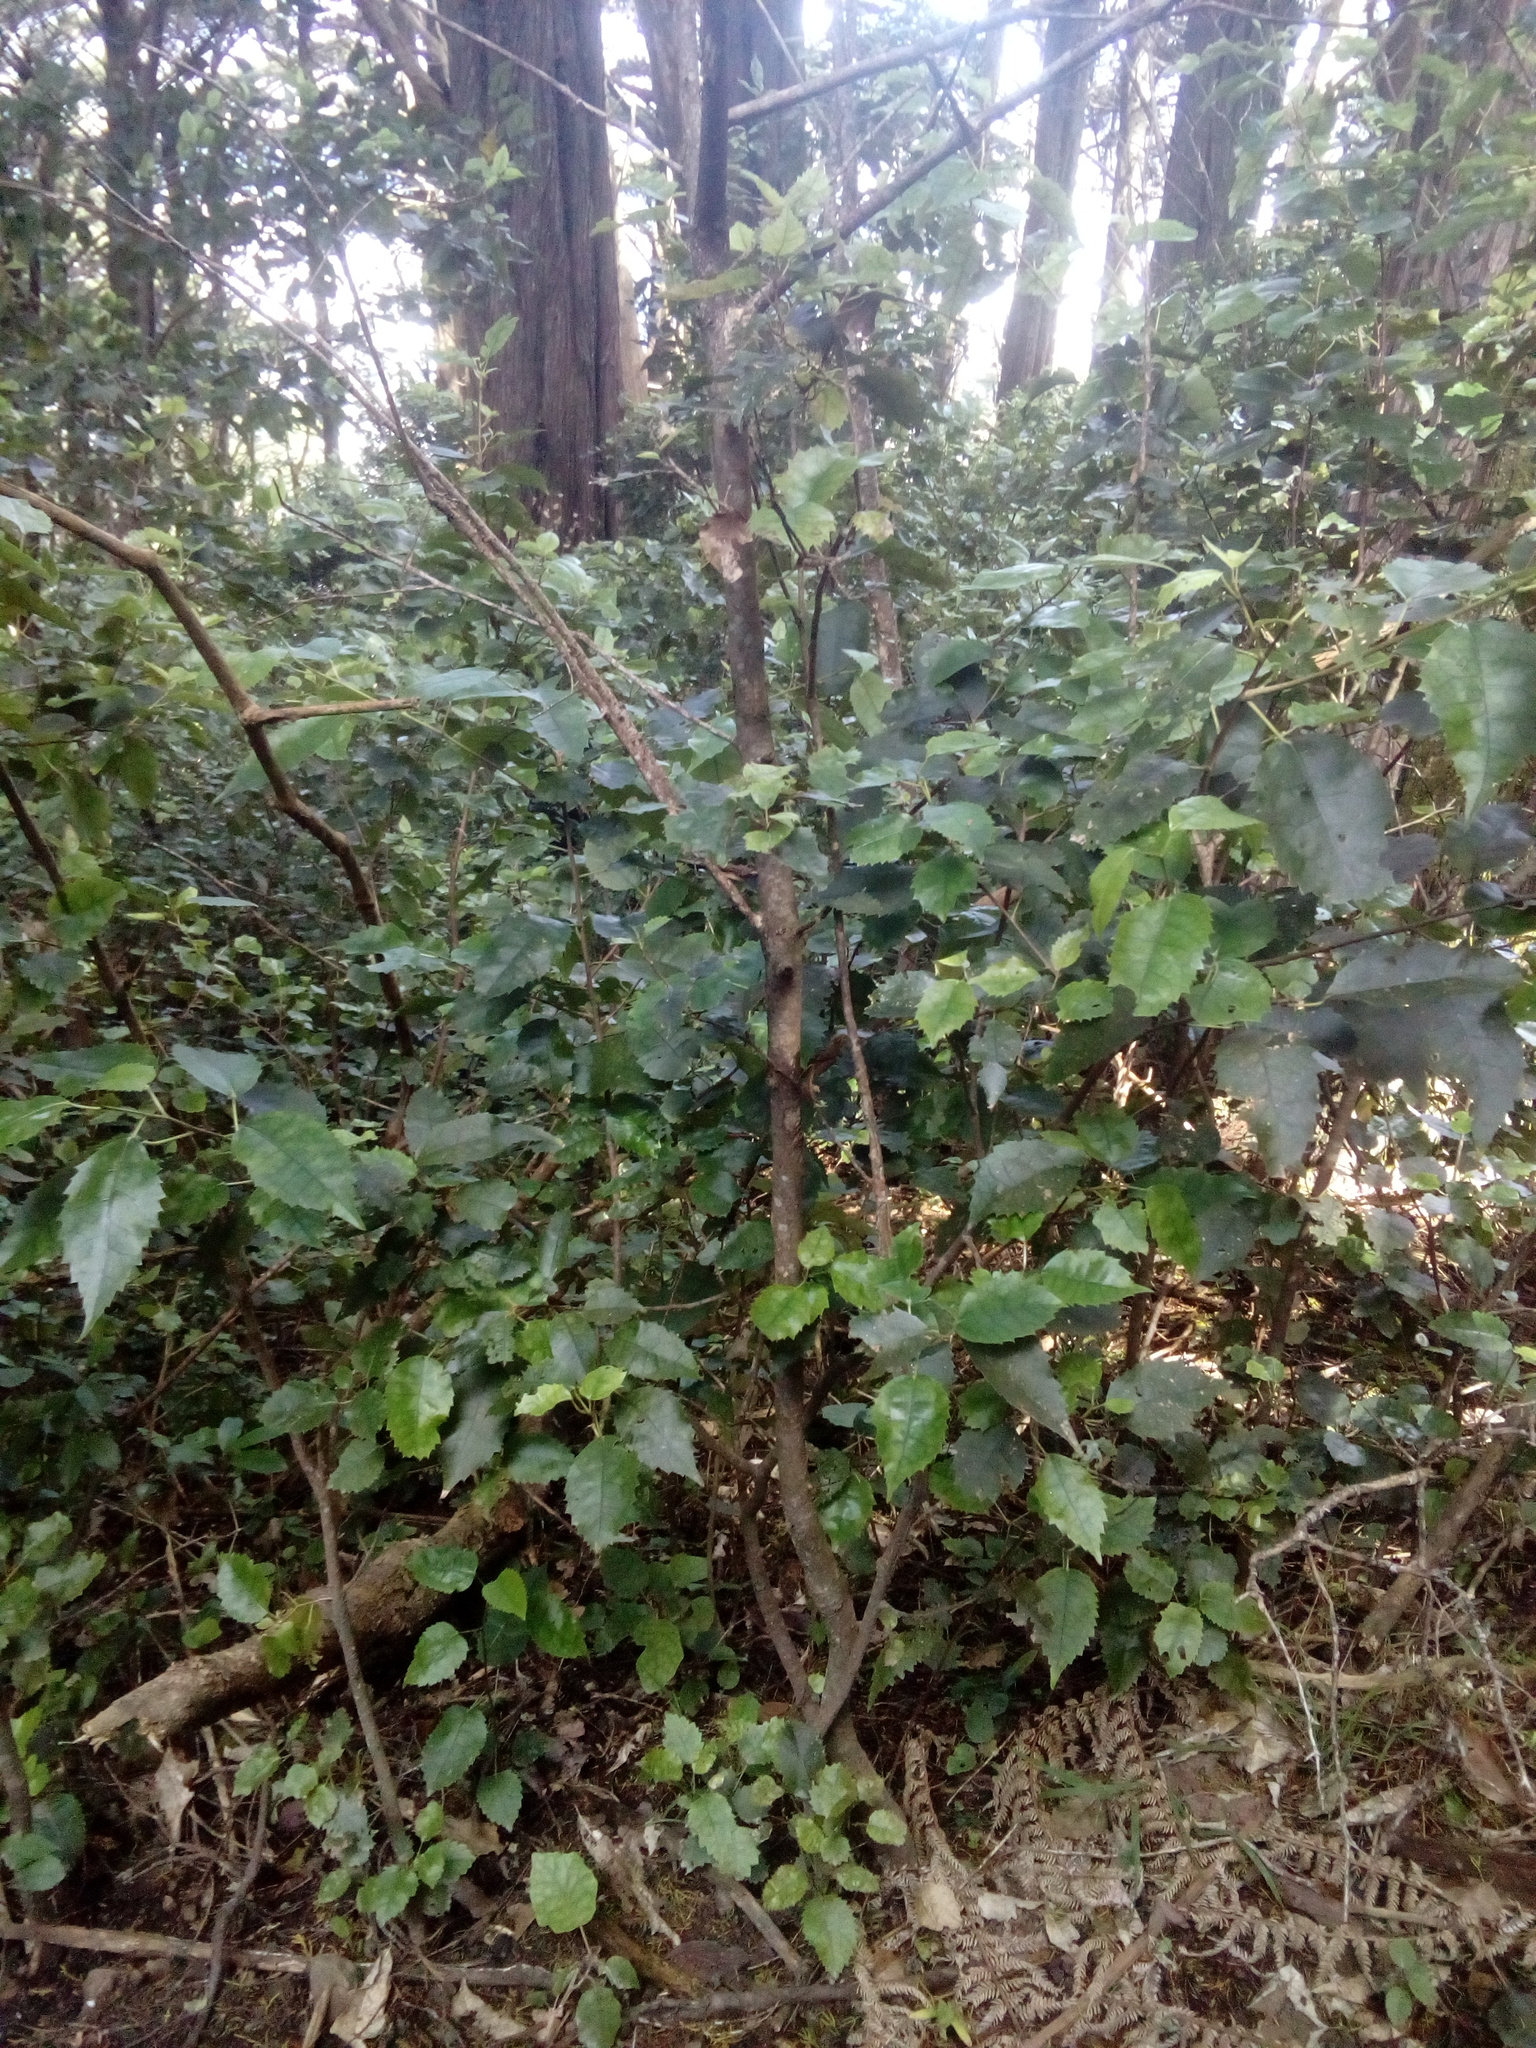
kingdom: Plantae
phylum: Tracheophyta
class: Magnoliopsida
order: Malvales
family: Malvaceae
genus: Hoheria
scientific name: Hoheria populnea
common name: Lacebark
